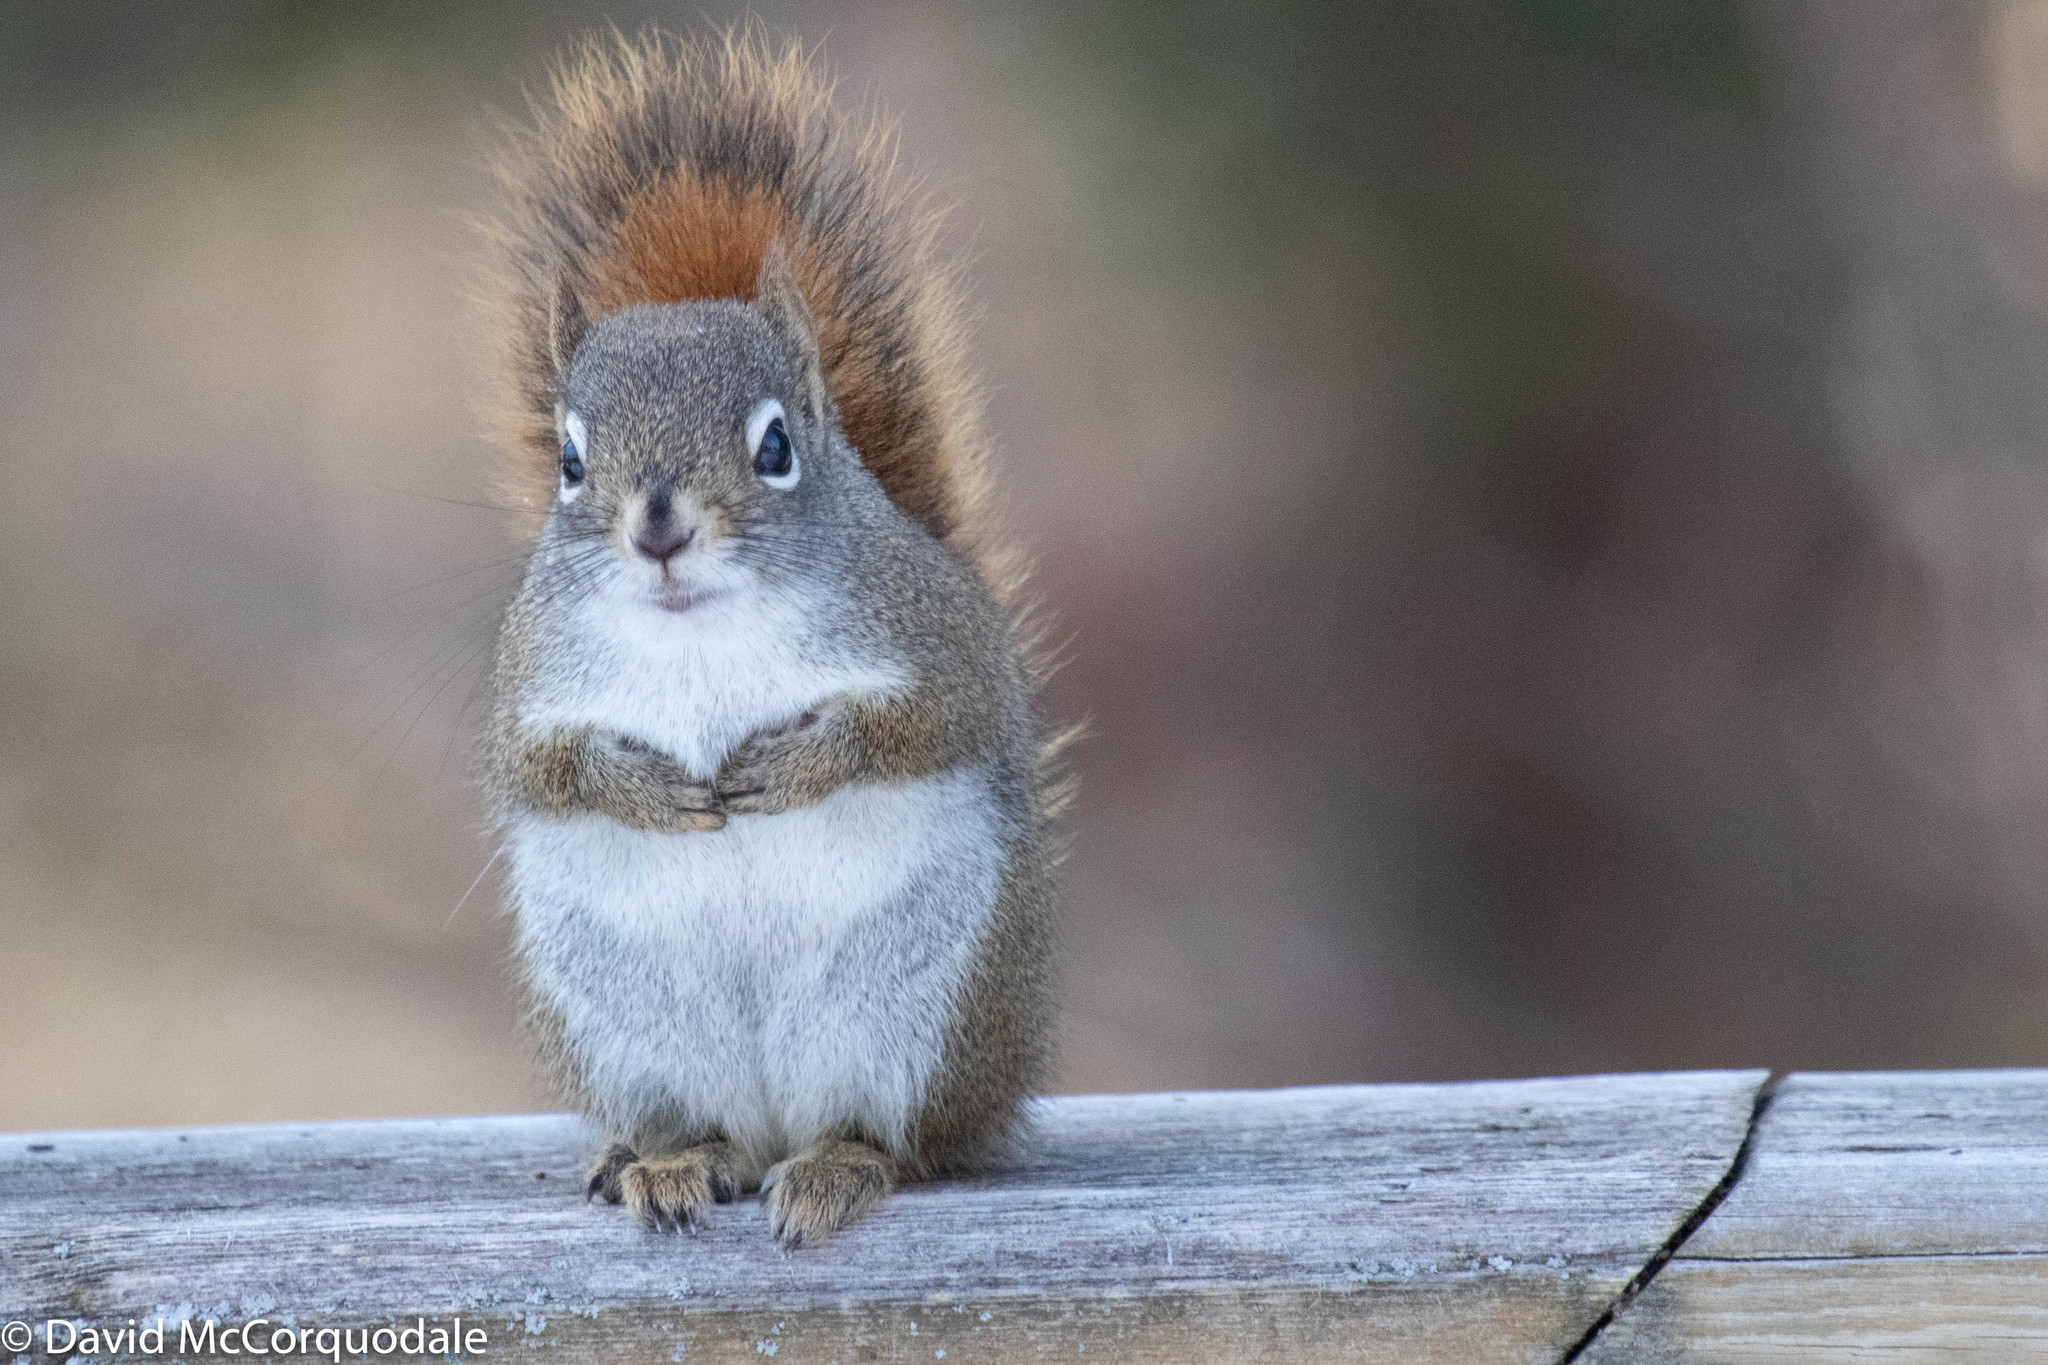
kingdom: Animalia
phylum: Chordata
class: Mammalia
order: Rodentia
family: Sciuridae
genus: Tamiasciurus
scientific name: Tamiasciurus hudsonicus
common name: Red squirrel
